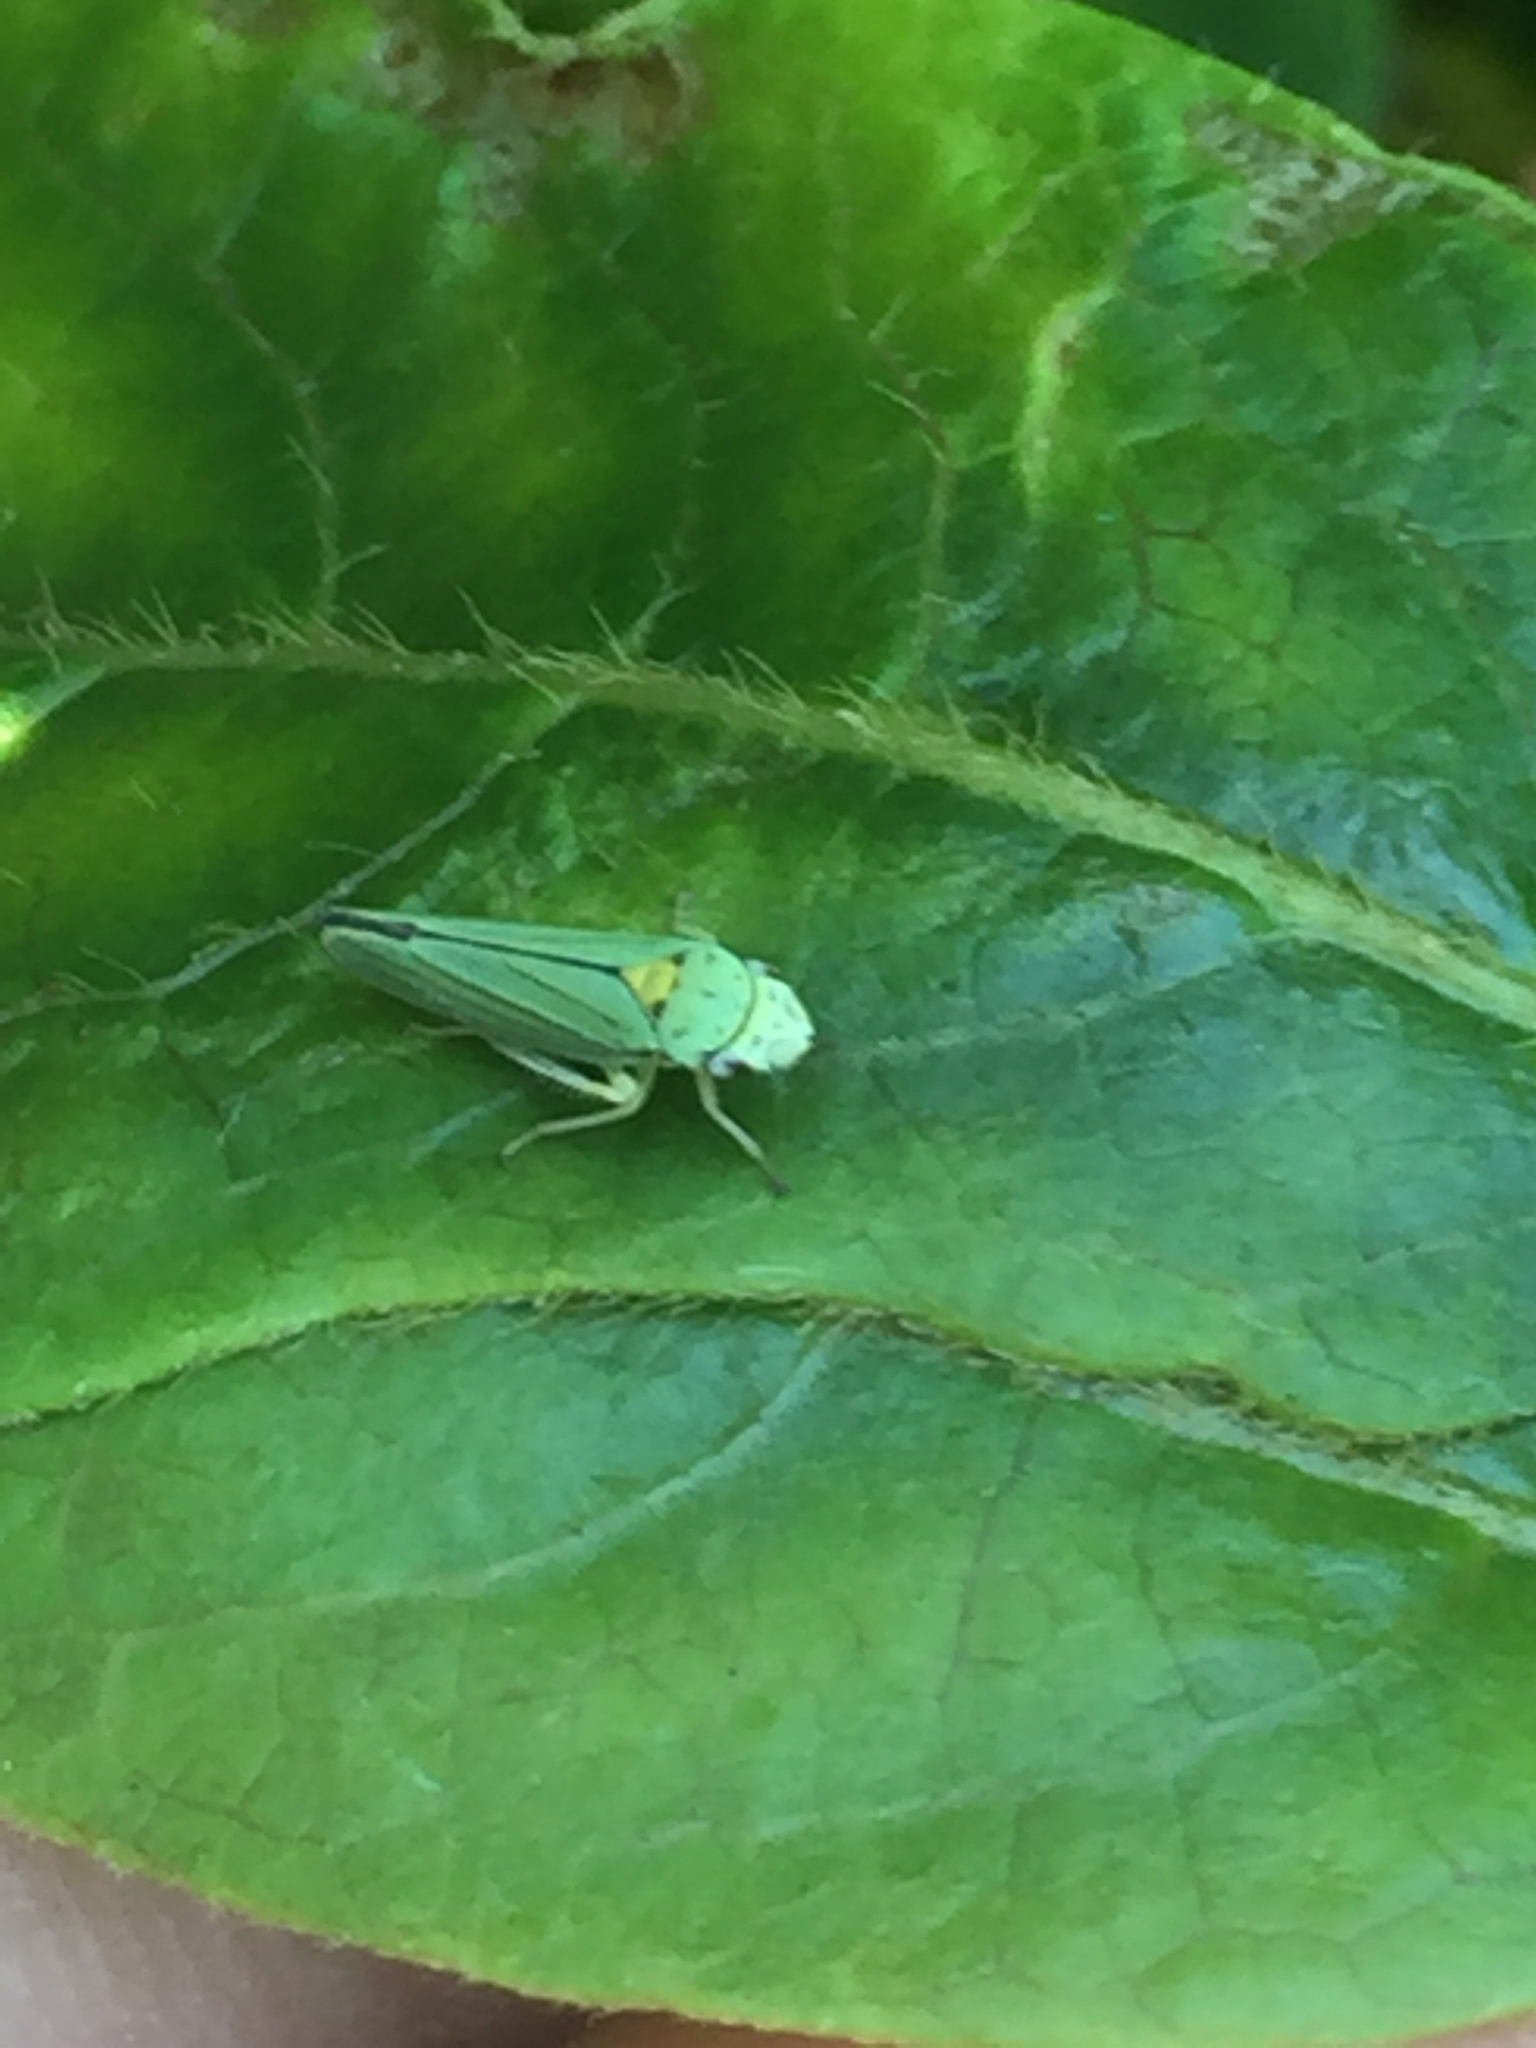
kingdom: Animalia
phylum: Arthropoda
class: Insecta
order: Hemiptera
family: Cicadellidae
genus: Graphocephala
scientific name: Graphocephala atropunctata
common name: Blue-green sharpshooter
